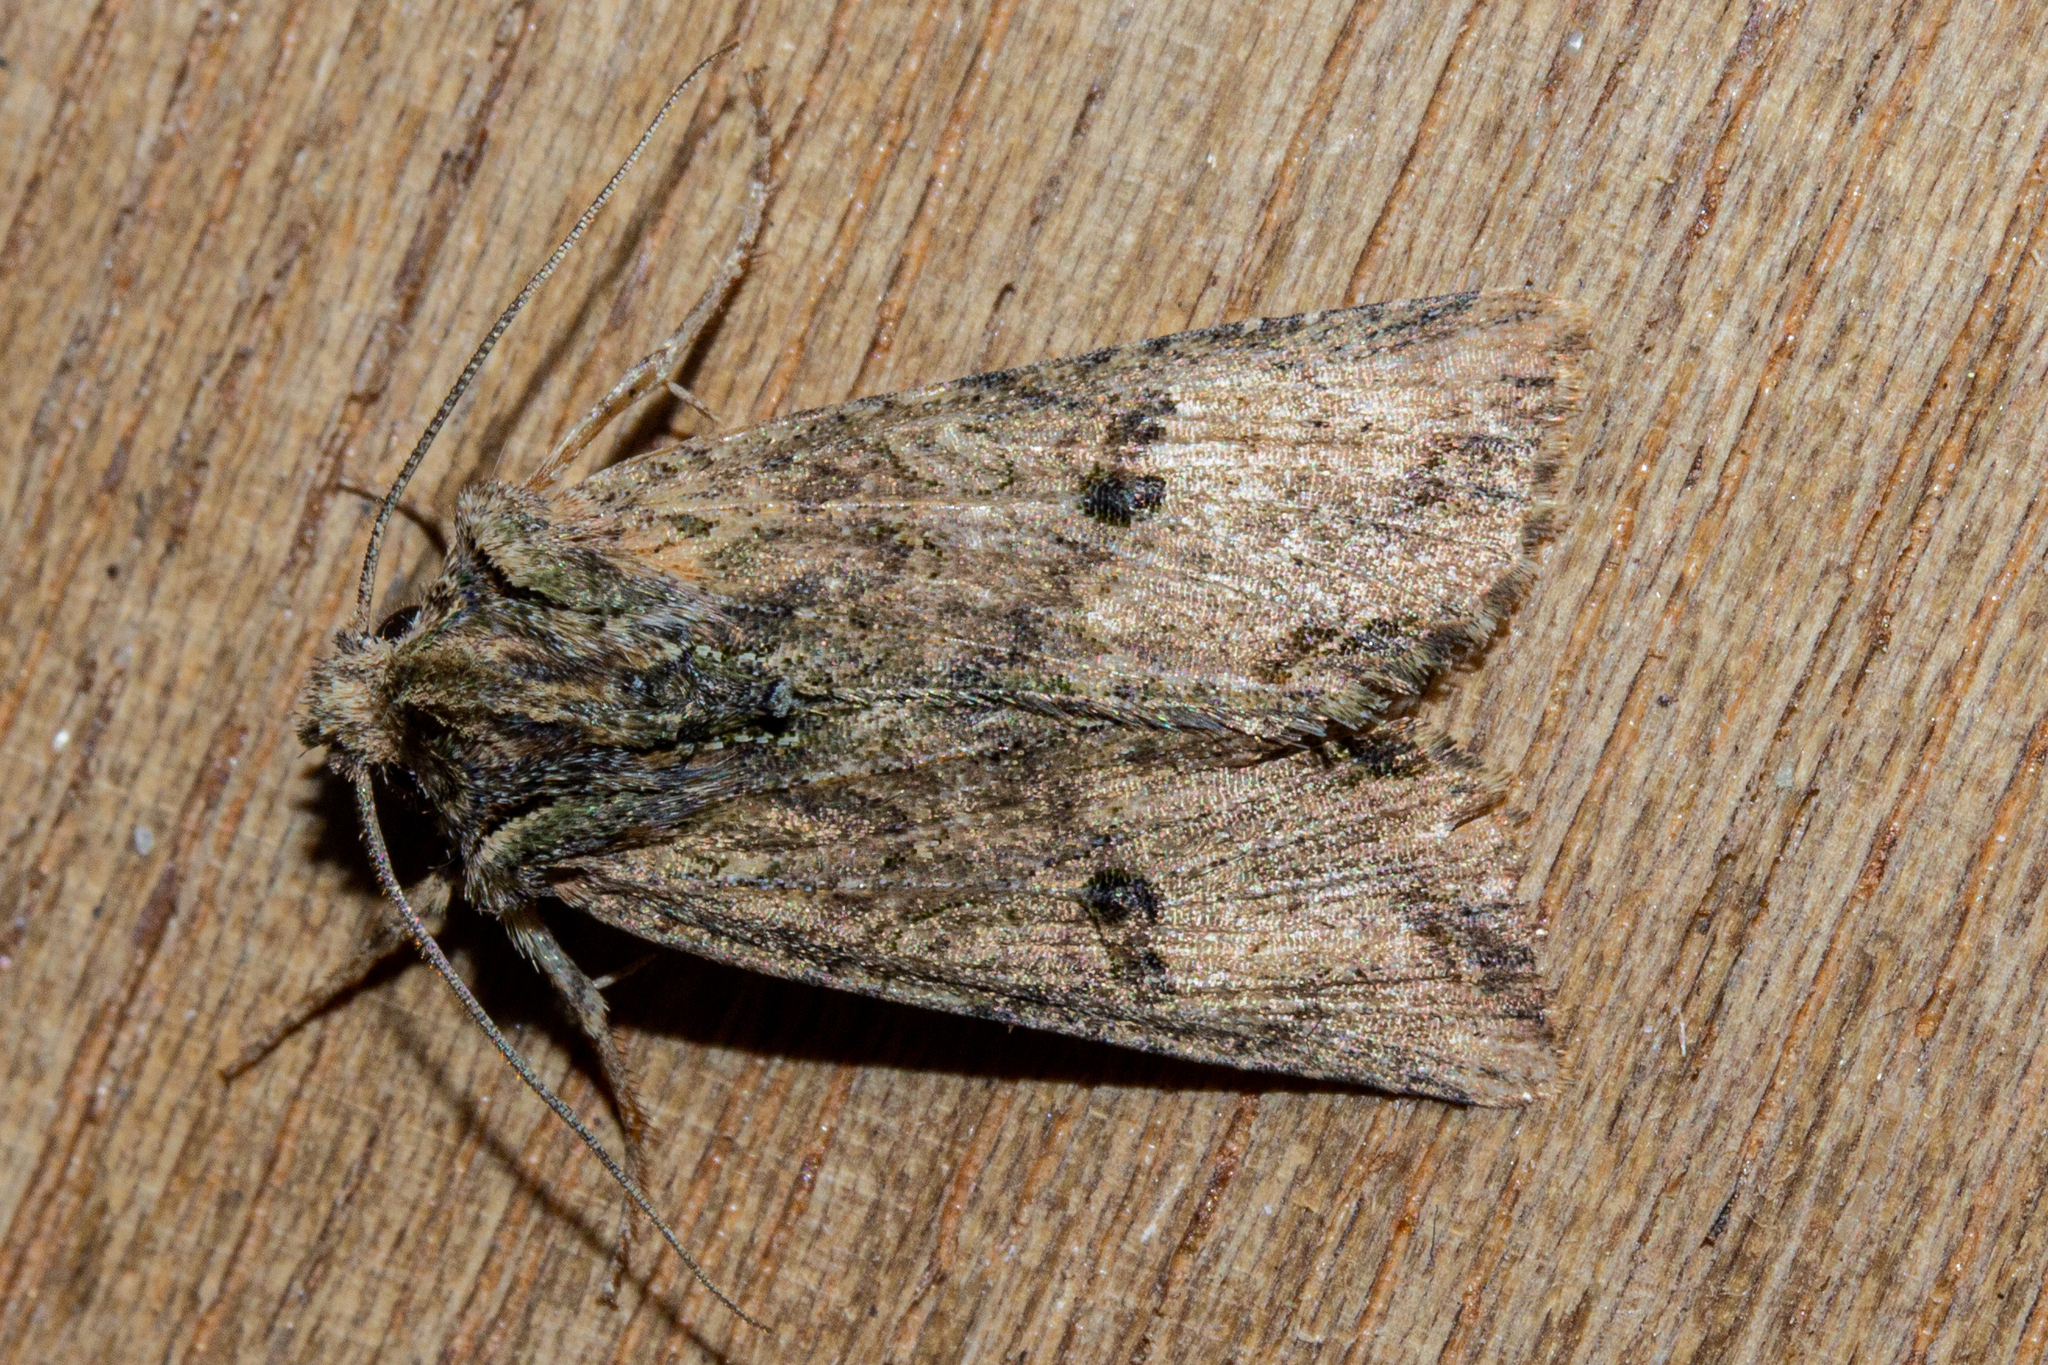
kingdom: Animalia
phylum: Arthropoda
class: Insecta
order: Lepidoptera
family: Noctuidae
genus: Meterana
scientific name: Meterana coeleno
